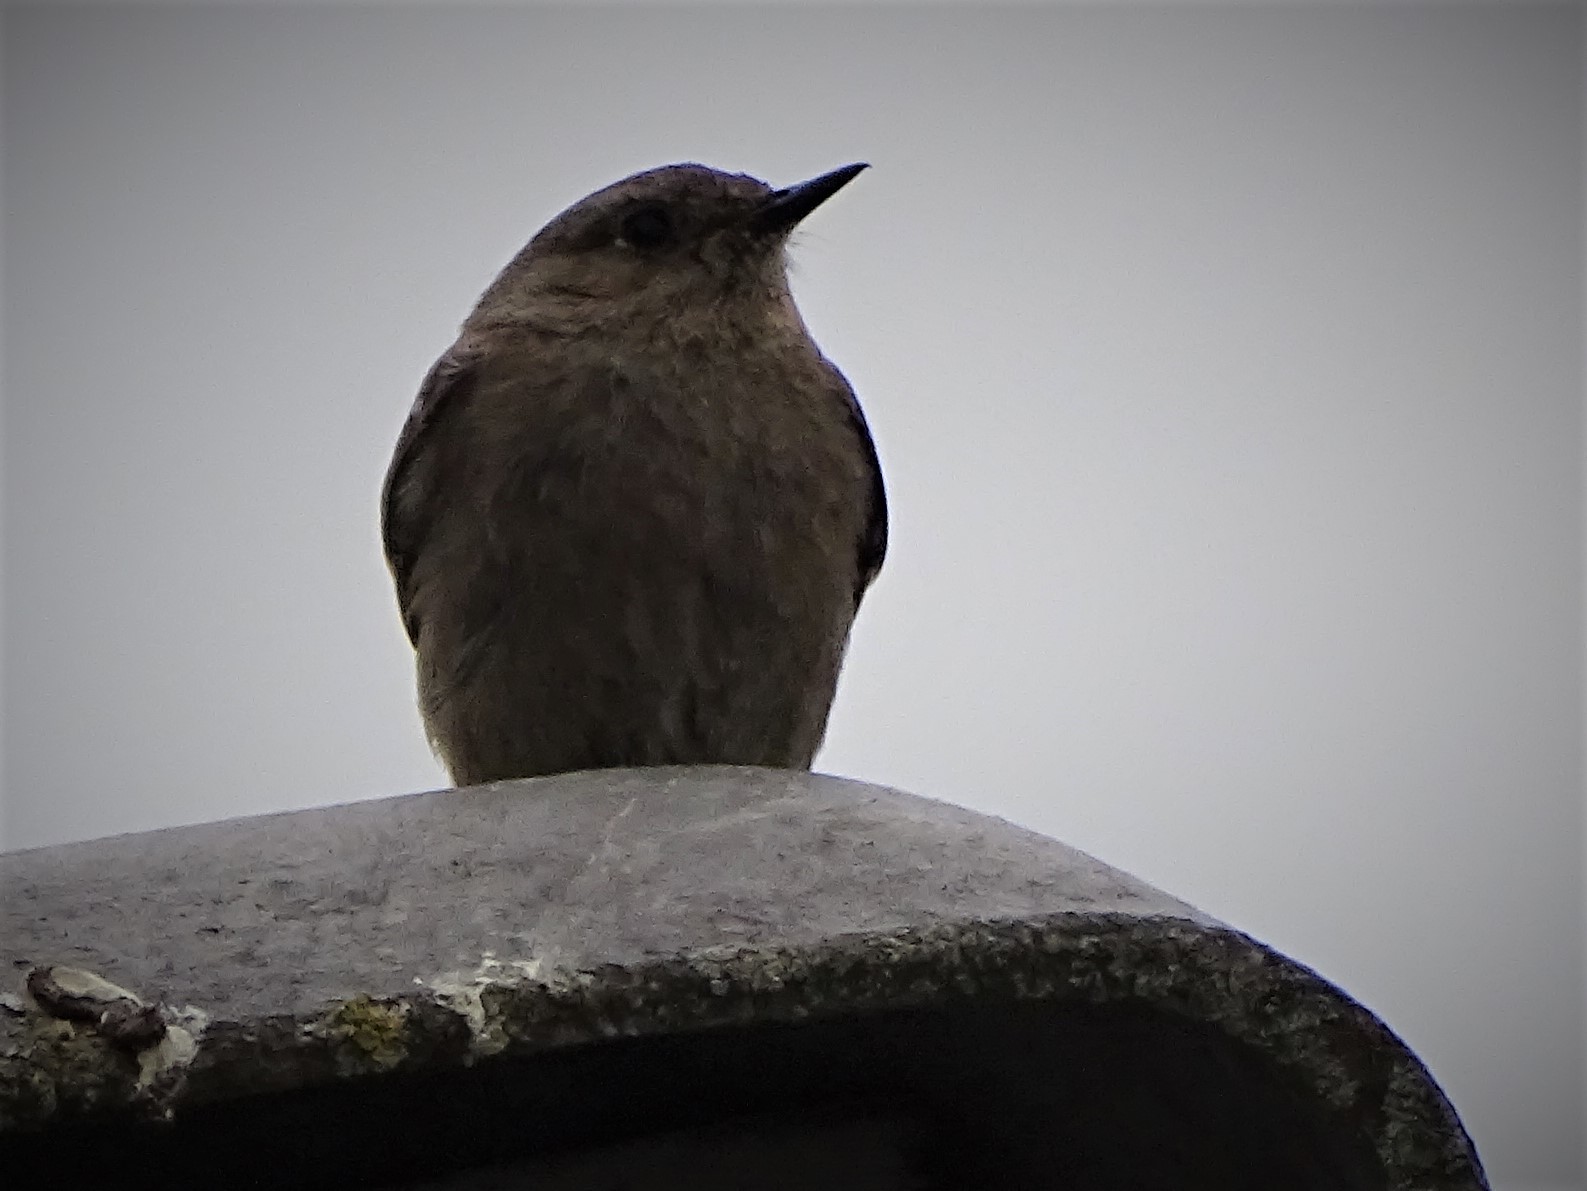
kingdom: Animalia
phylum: Chordata
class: Aves
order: Passeriformes
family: Muscicapidae
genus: Phoenicurus
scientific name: Phoenicurus ochruros
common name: Black redstart
